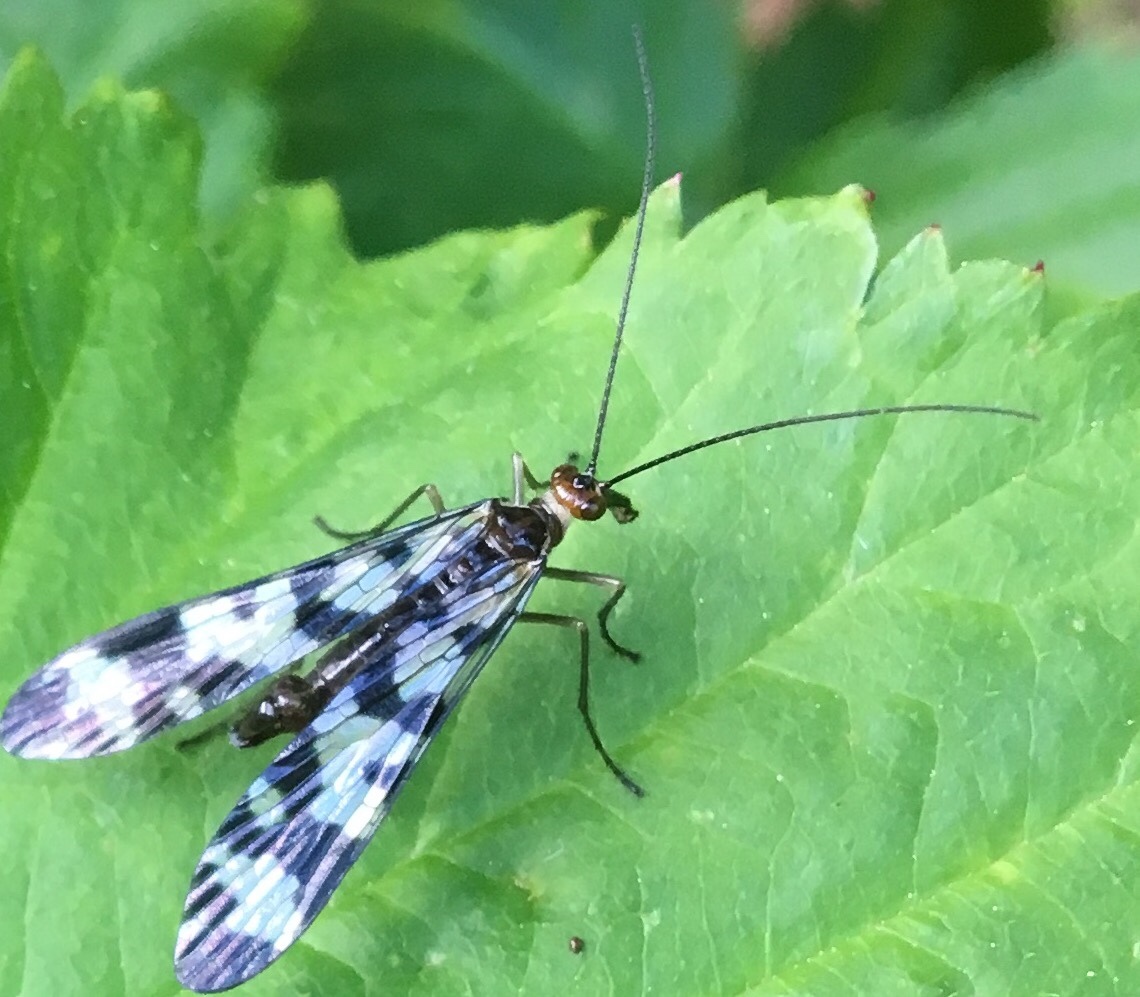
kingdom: Animalia
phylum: Arthropoda
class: Insecta
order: Mecoptera
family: Panorpidae
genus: Panorpa
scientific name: Panorpa carolinensis
